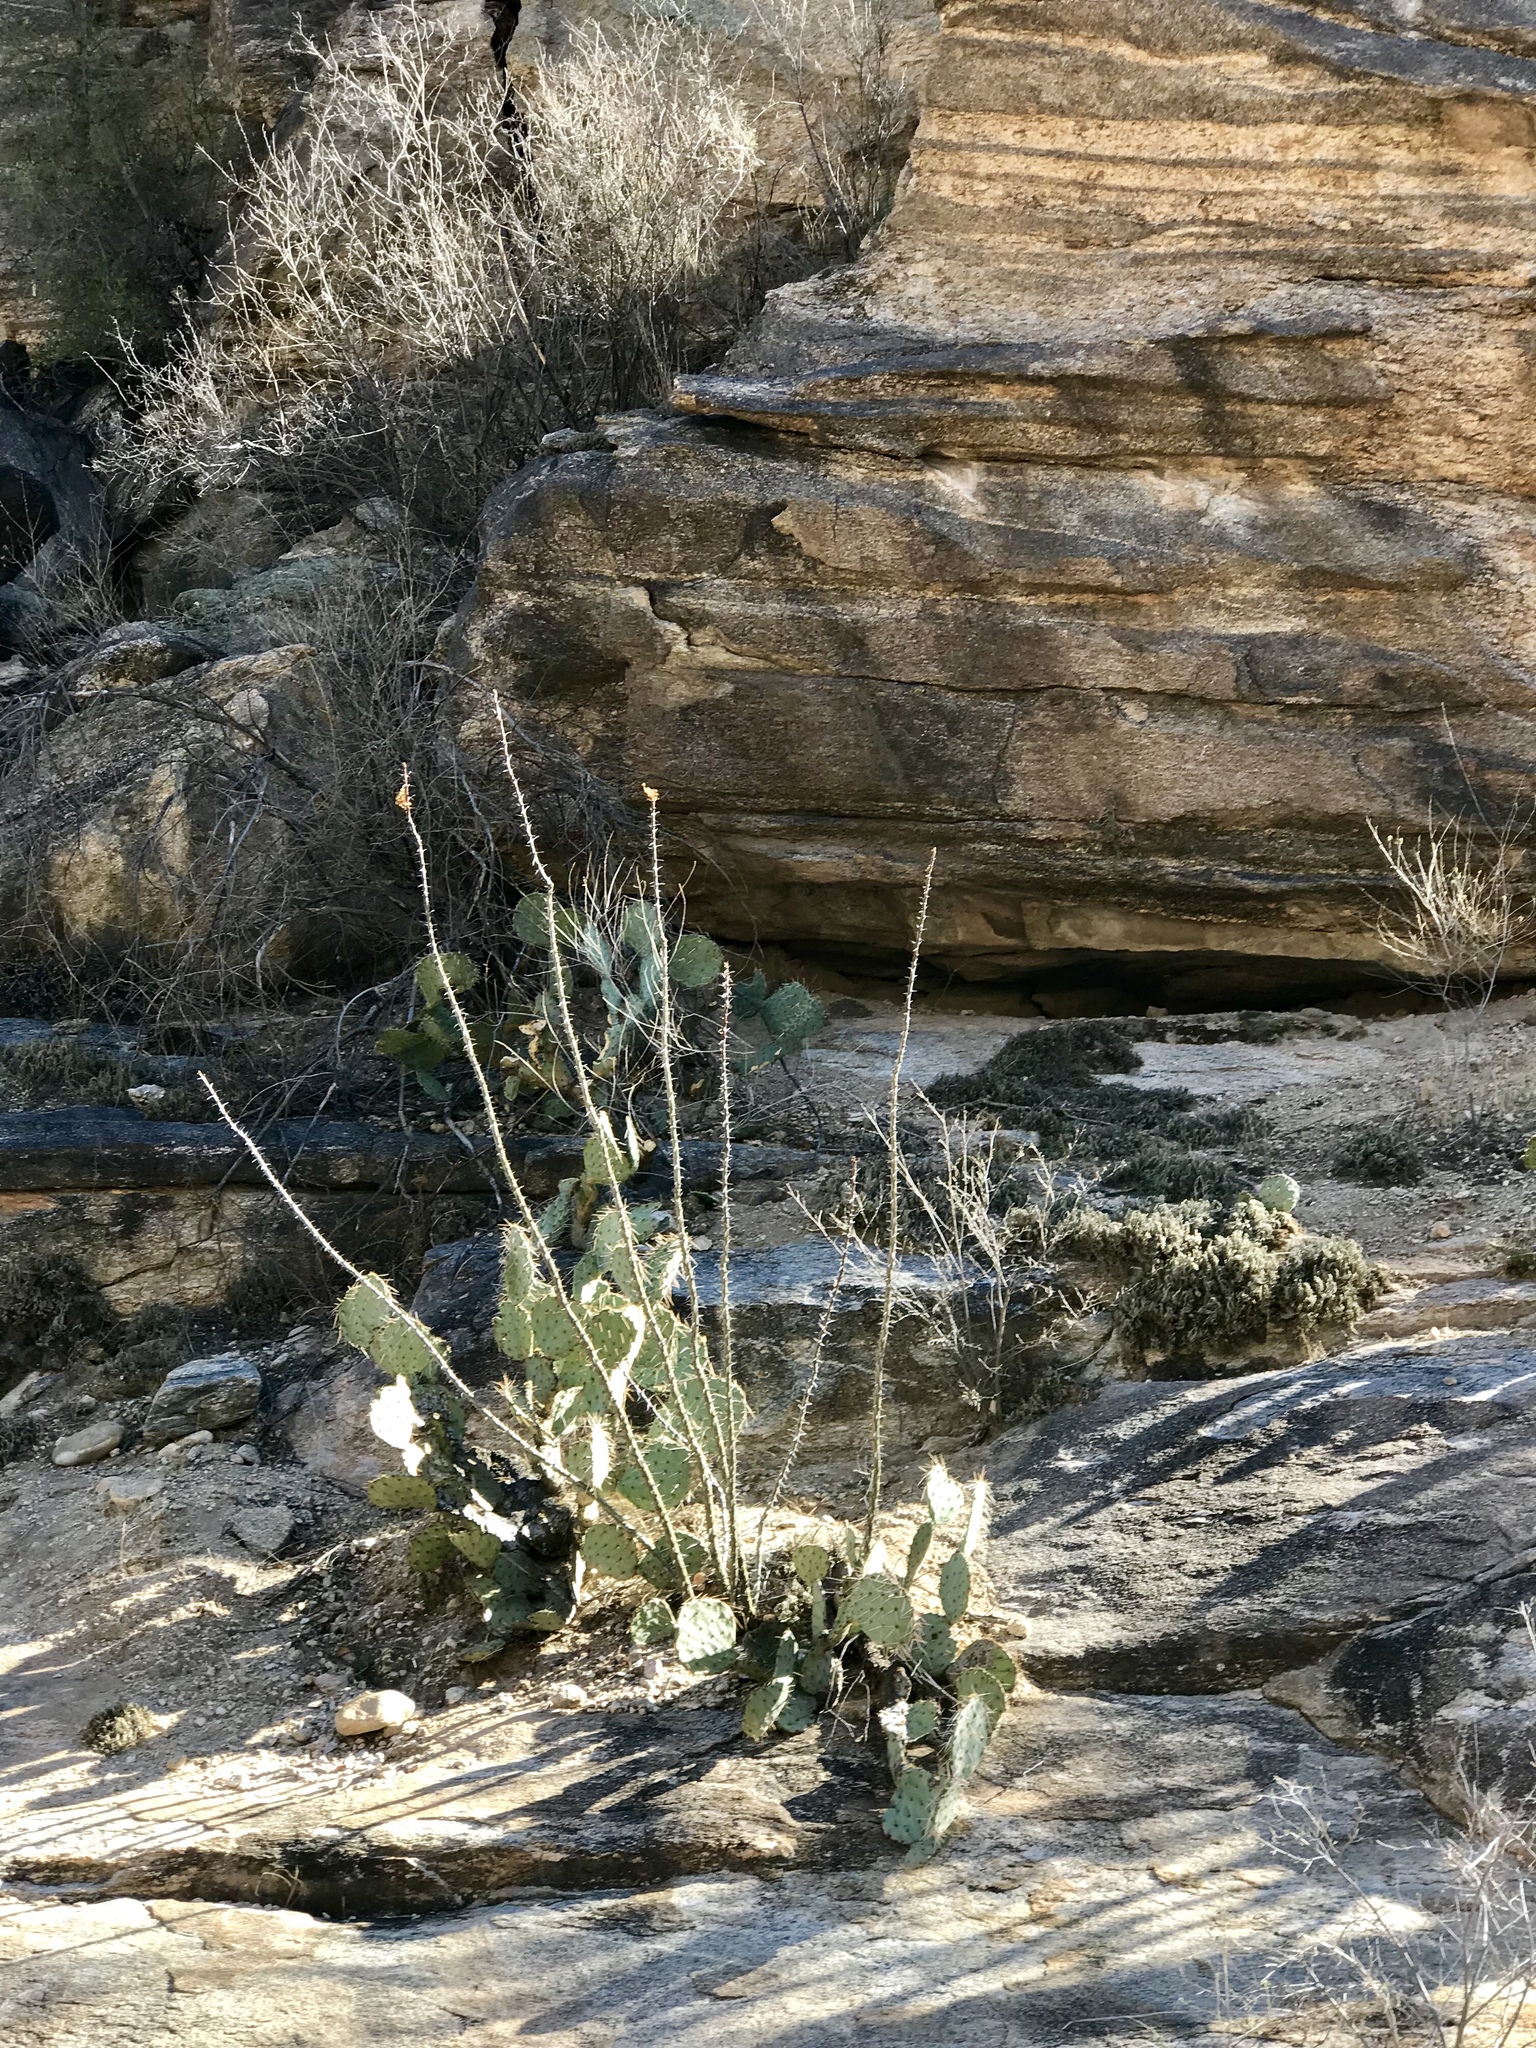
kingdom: Plantae
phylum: Tracheophyta
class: Magnoliopsida
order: Ericales
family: Fouquieriaceae
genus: Fouquieria
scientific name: Fouquieria splendens
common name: Vine-cactus
